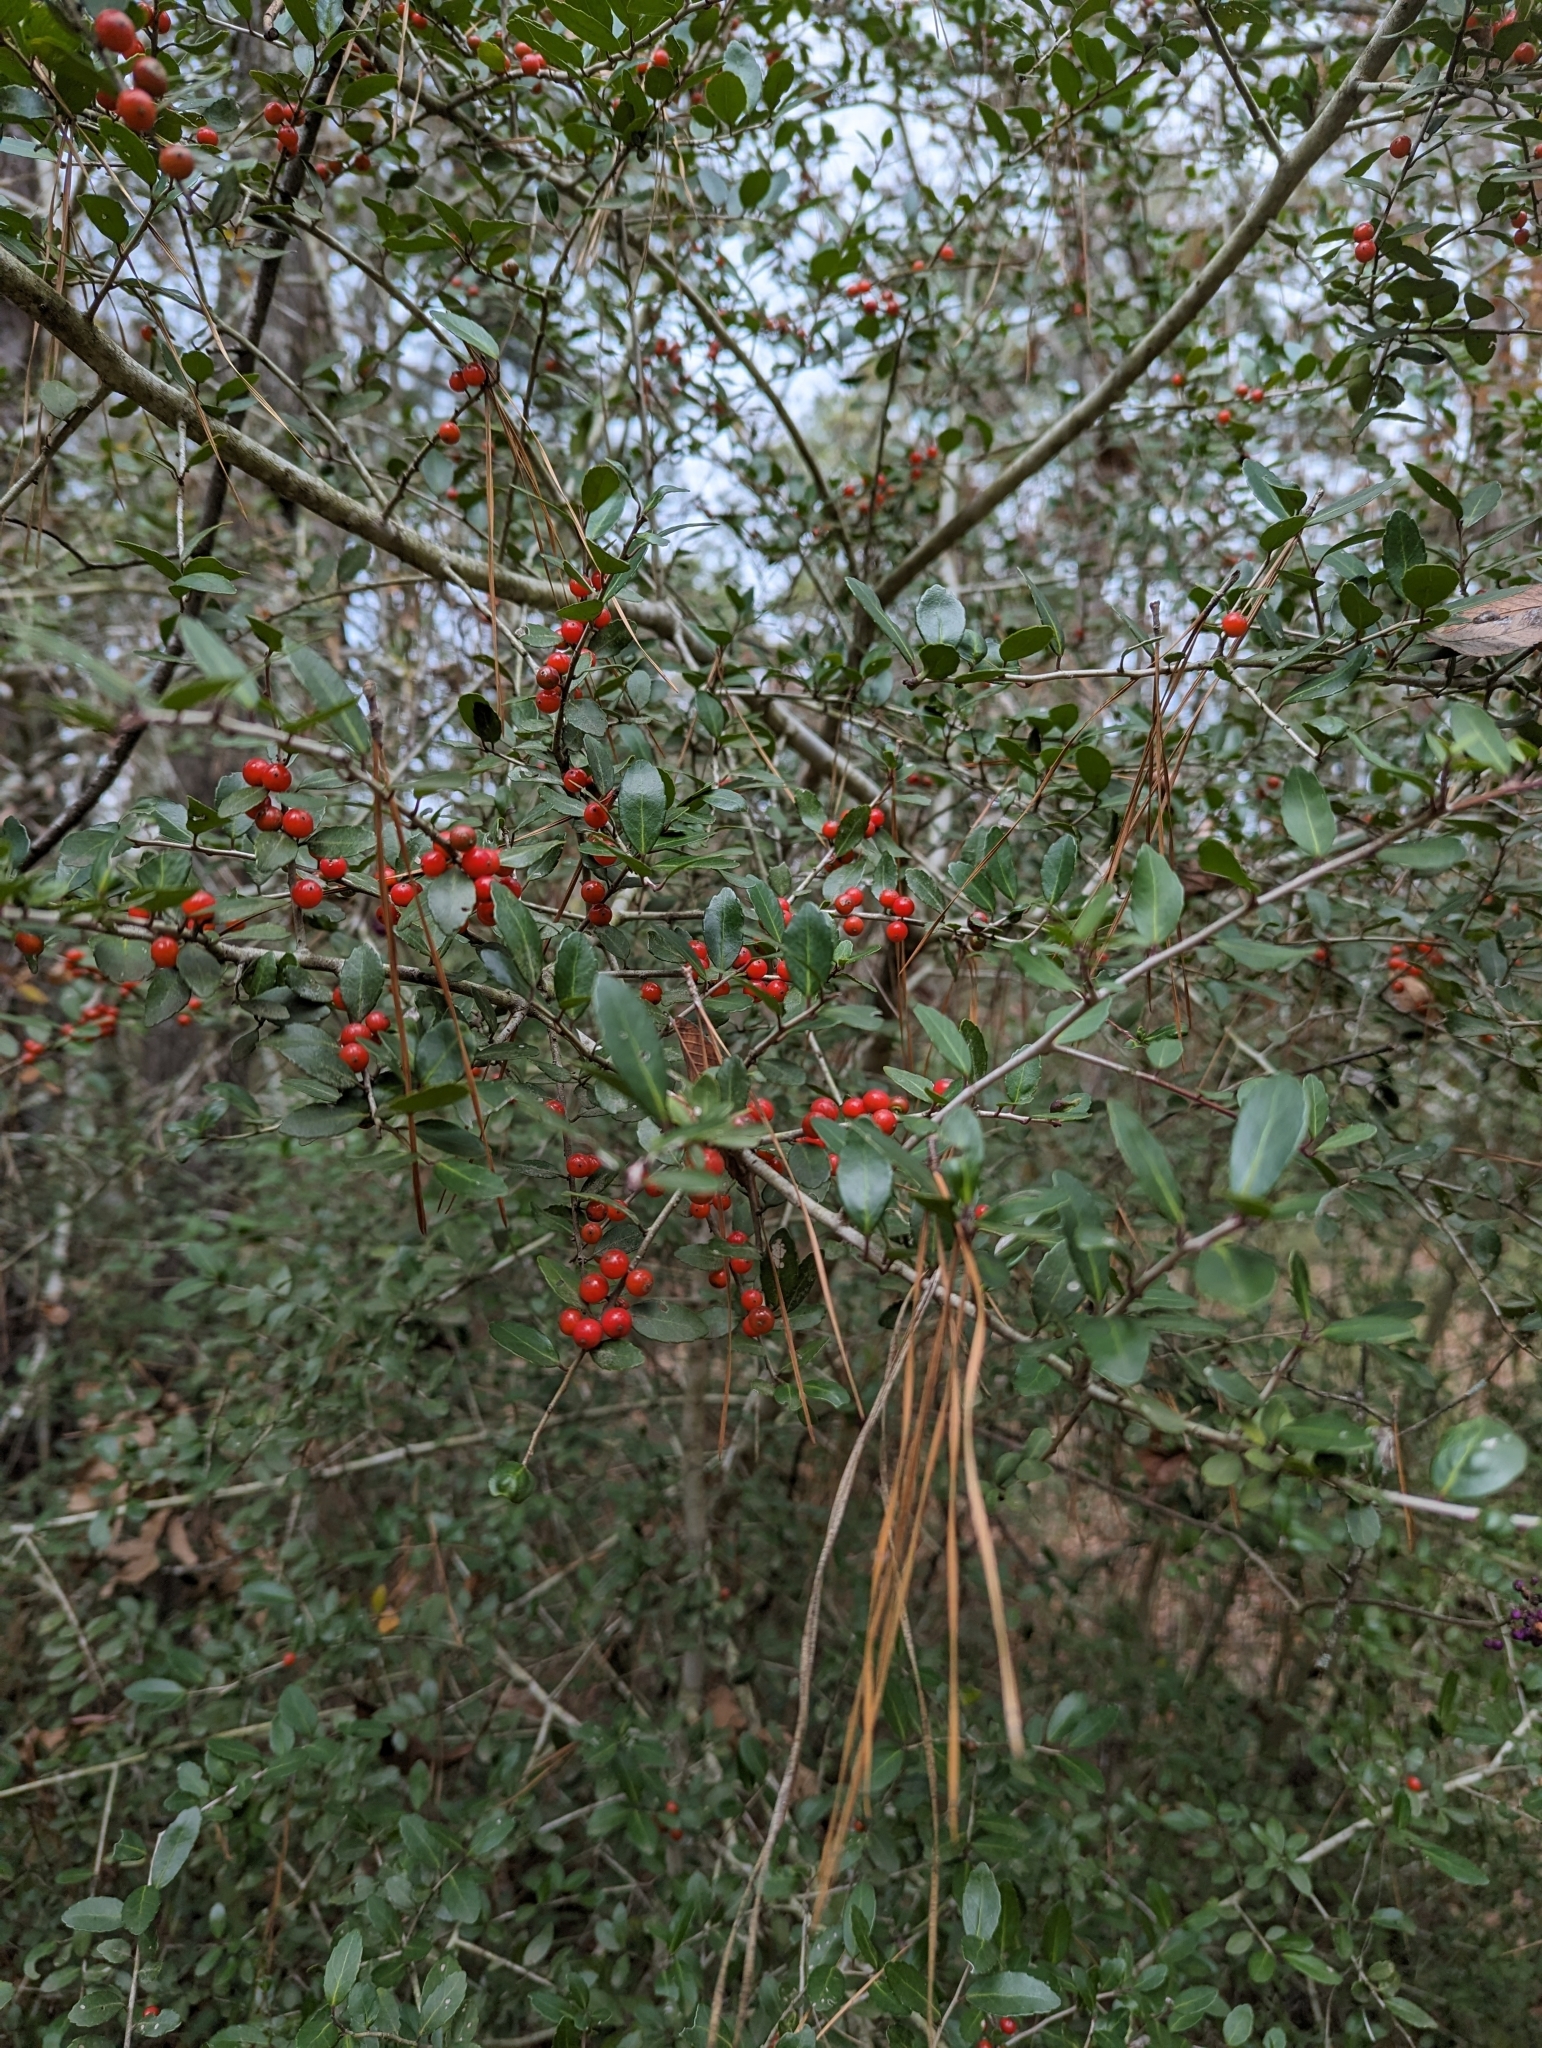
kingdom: Plantae
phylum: Tracheophyta
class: Magnoliopsida
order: Aquifoliales
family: Aquifoliaceae
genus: Ilex
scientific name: Ilex vomitoria
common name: Yaupon holly
